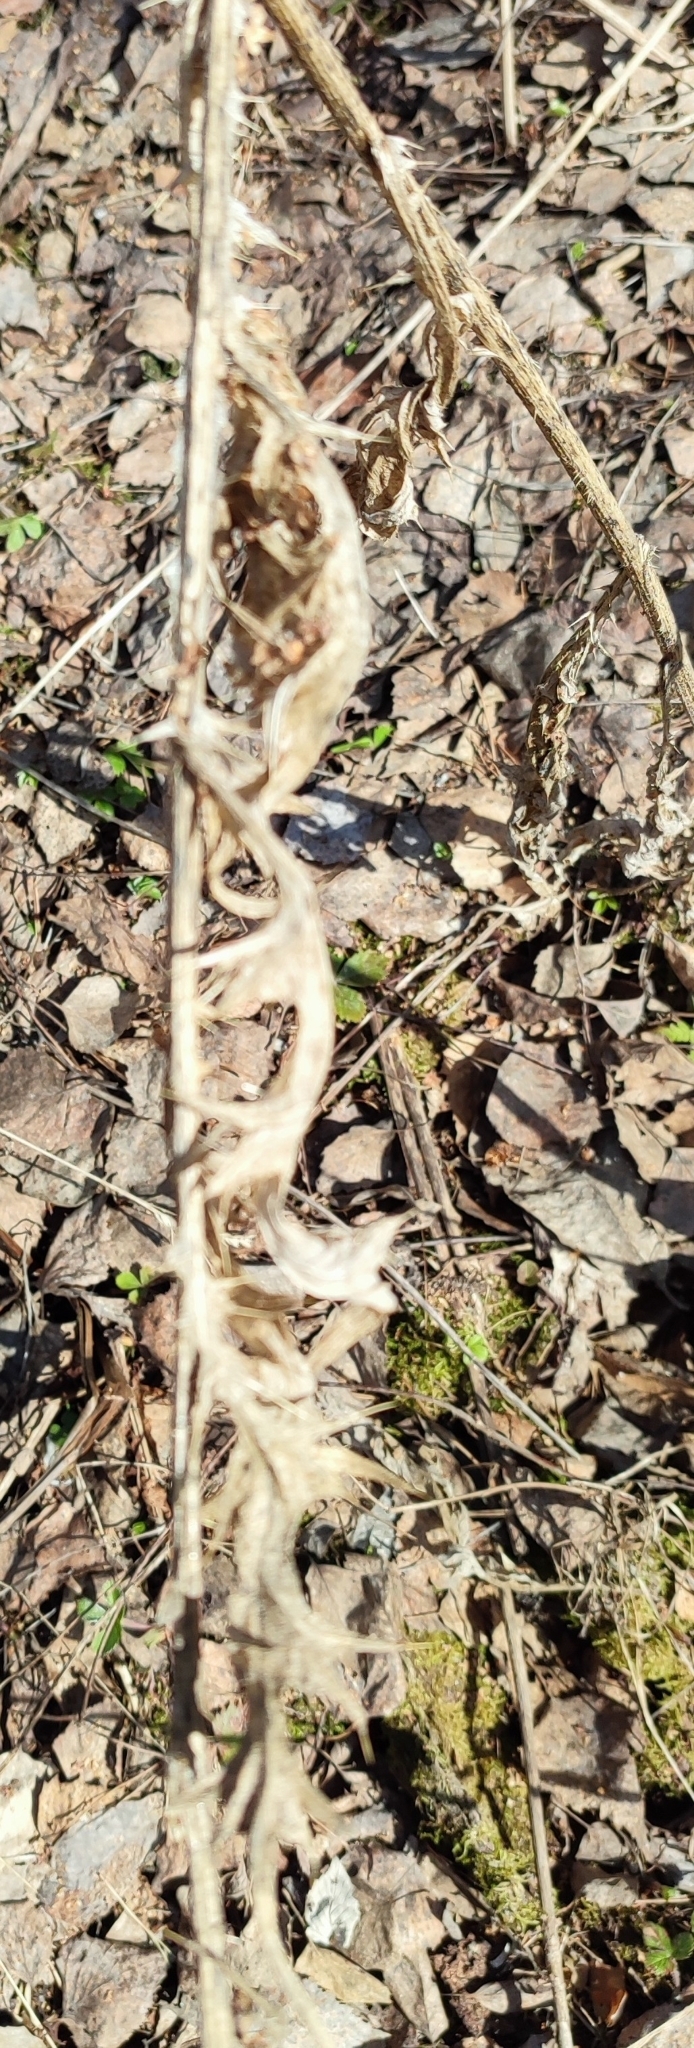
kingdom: Plantae
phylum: Tracheophyta
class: Magnoliopsida
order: Asterales
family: Asteraceae
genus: Cirsium
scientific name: Cirsium vulgare
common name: Bull thistle
